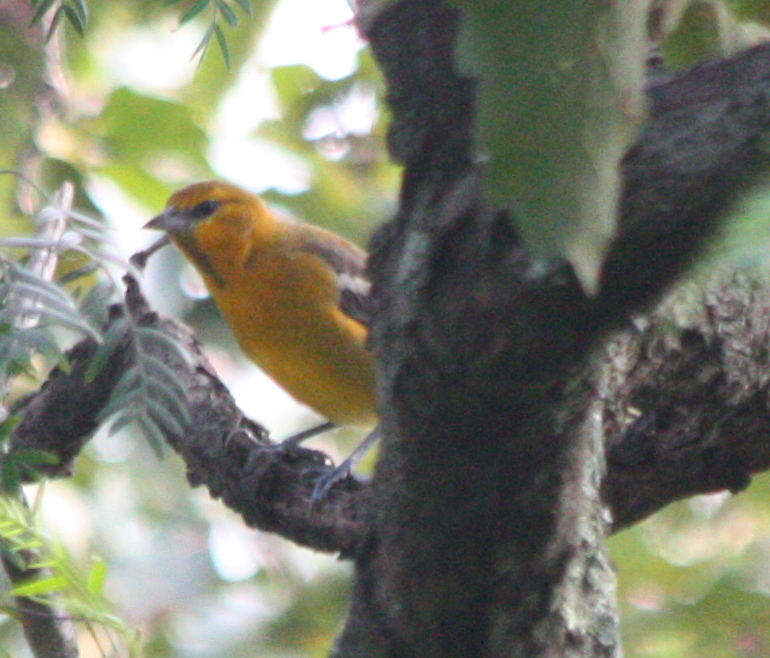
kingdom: Animalia
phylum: Chordata
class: Aves
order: Passeriformes
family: Icteridae
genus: Icterus
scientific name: Icterus bullockii
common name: Bullock's oriole
